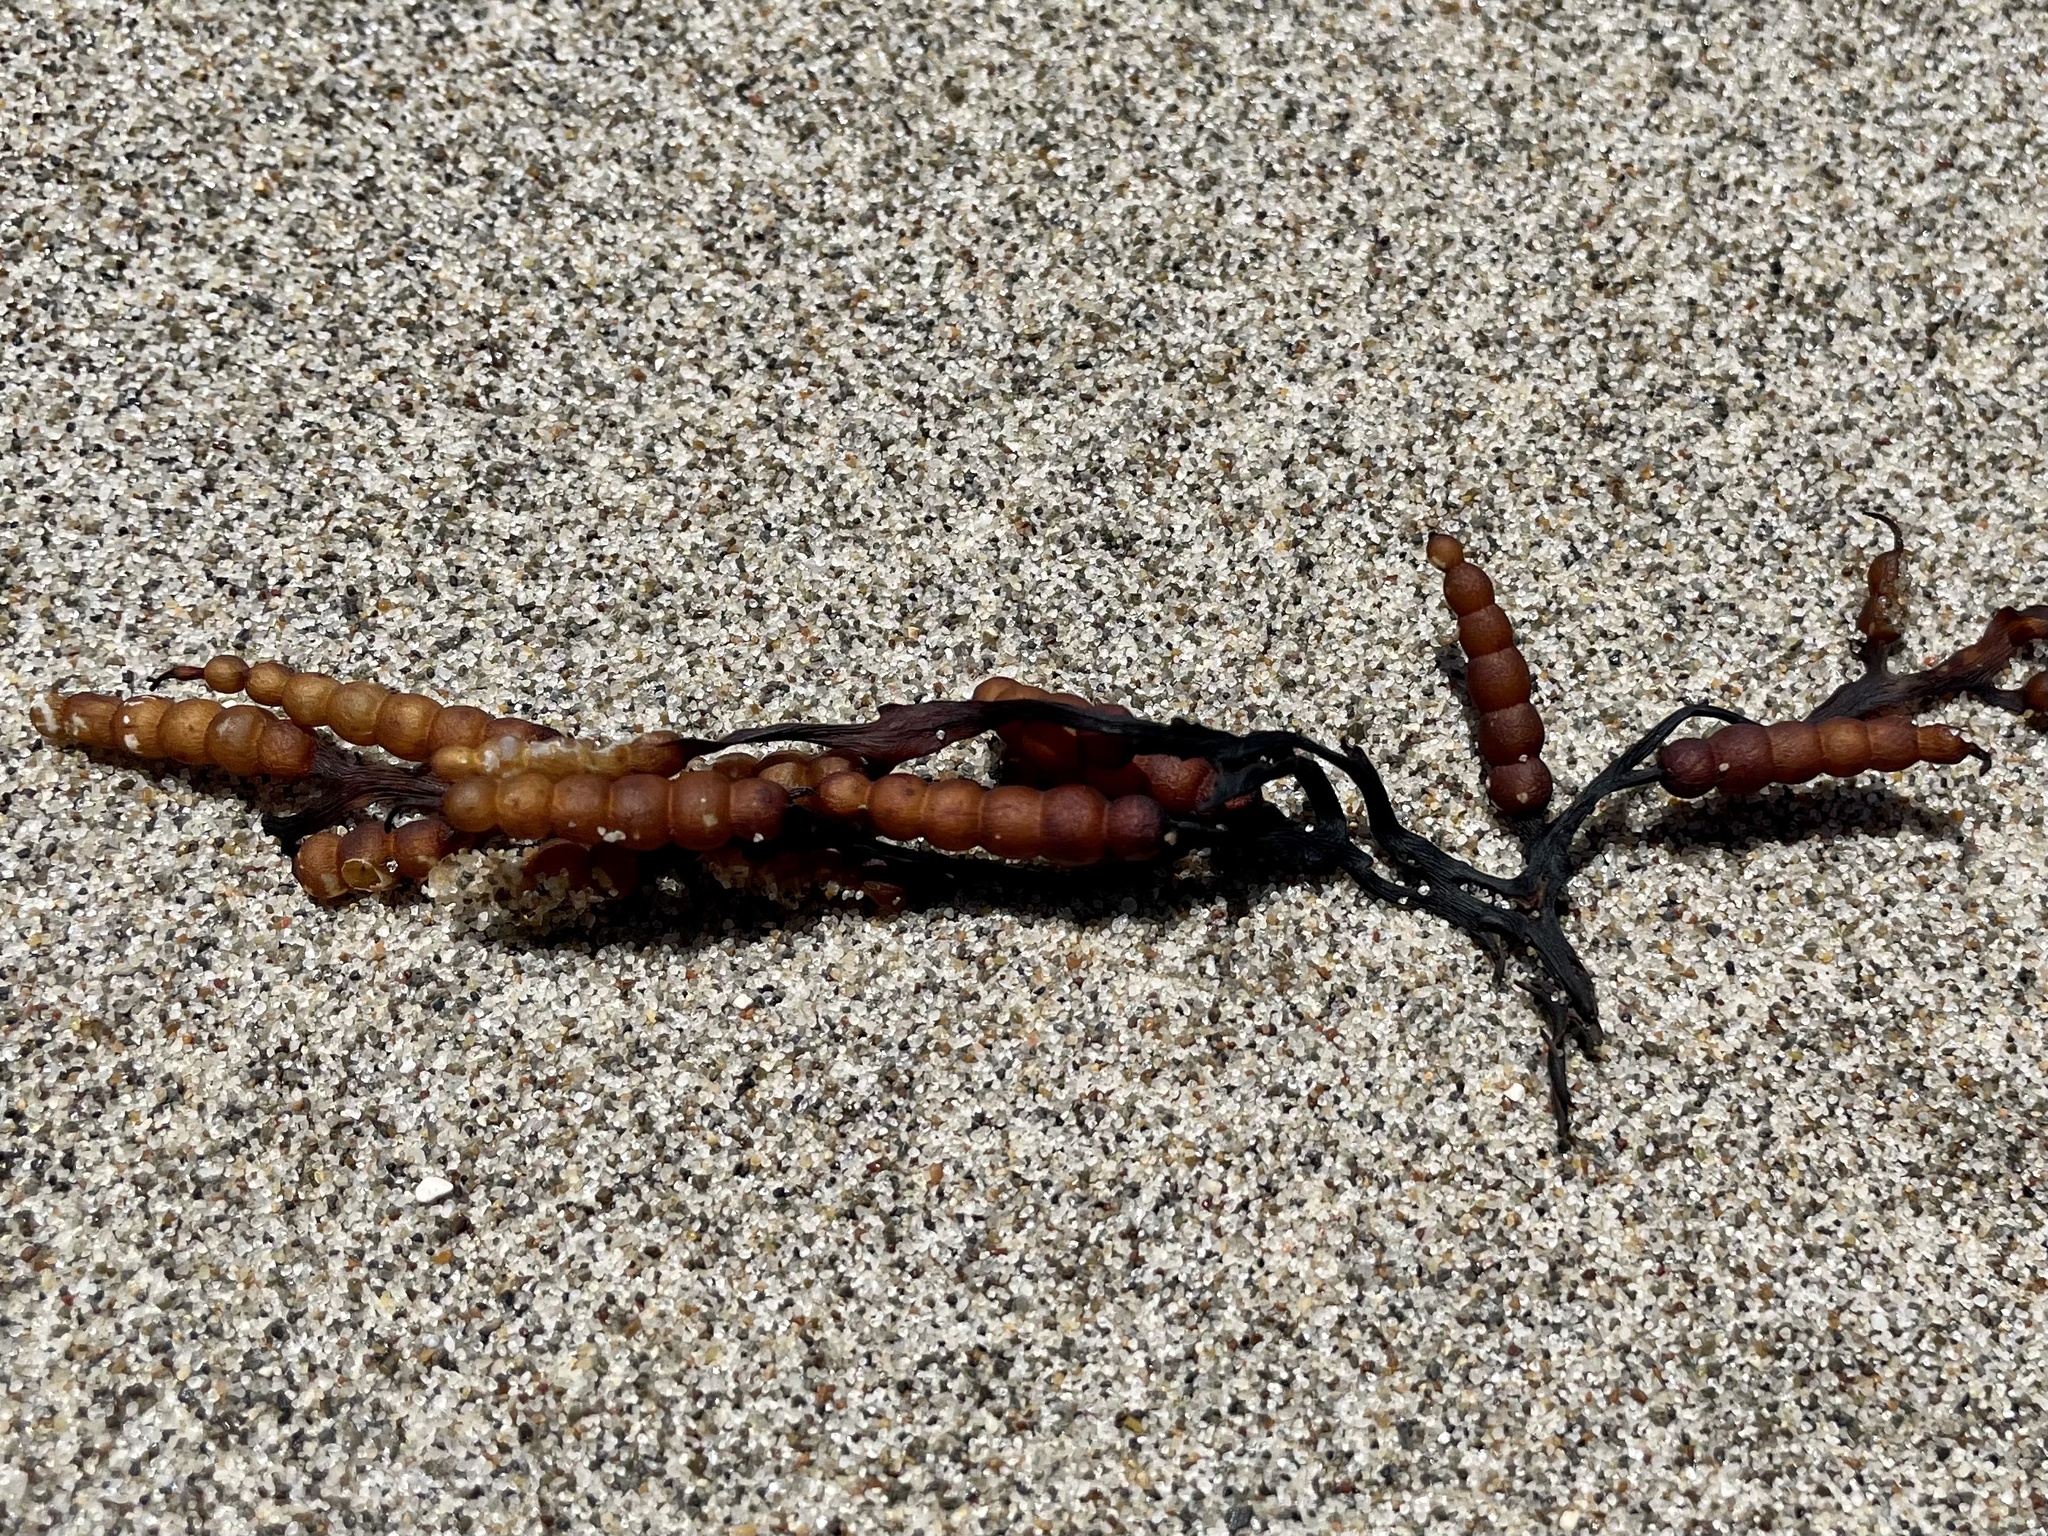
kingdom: Chromista
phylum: Ochrophyta
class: Phaeophyceae
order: Fucales
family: Sargassaceae
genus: Stephanocystis
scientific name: Stephanocystis
